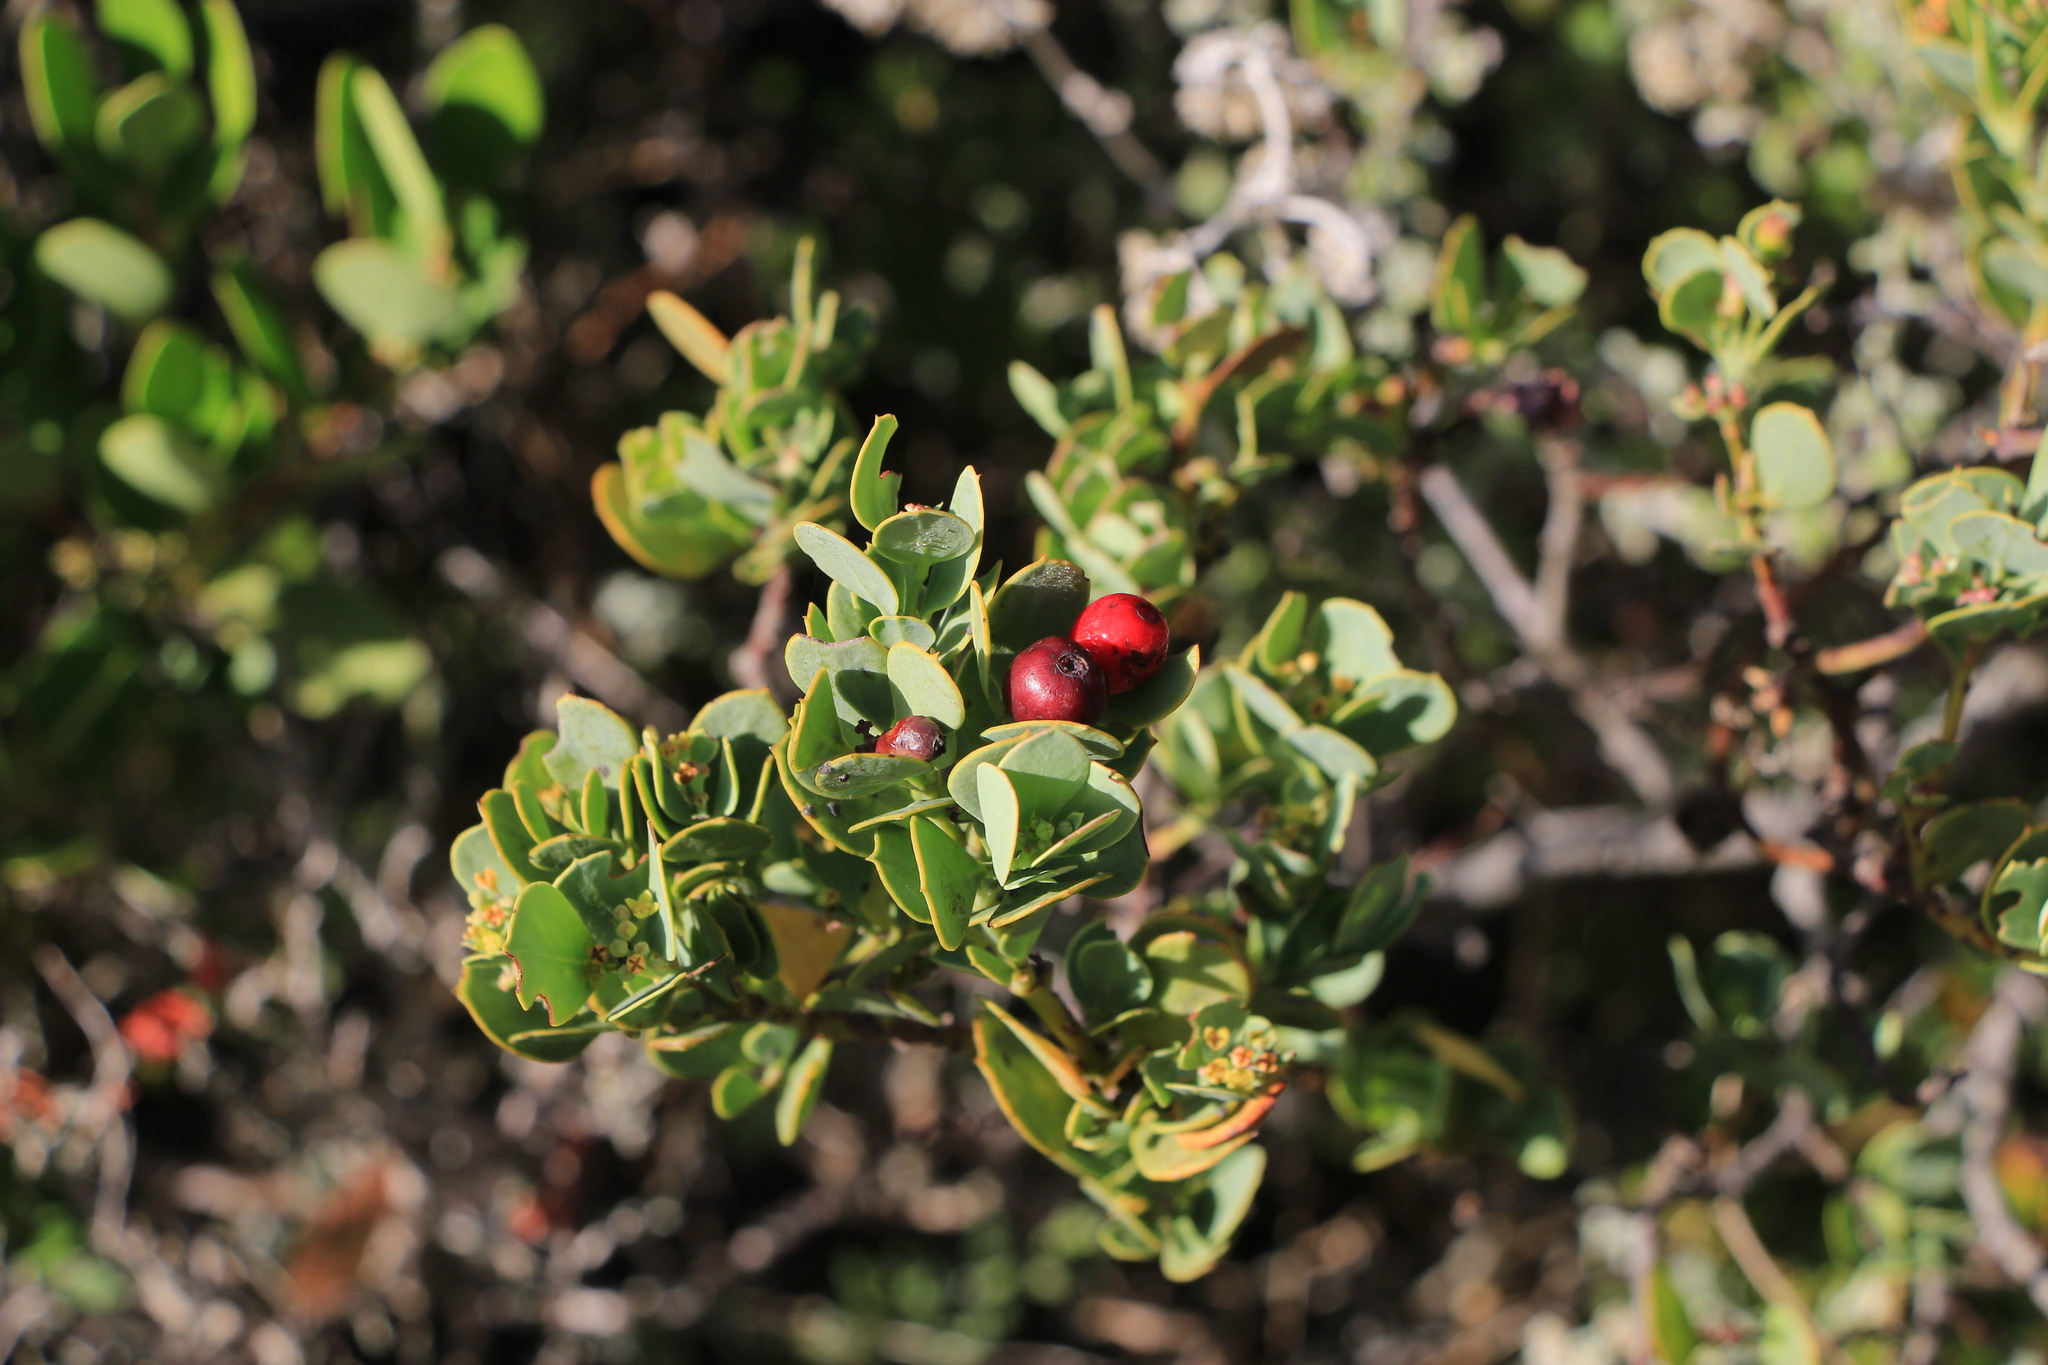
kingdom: Plantae
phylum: Tracheophyta
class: Magnoliopsida
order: Santalales
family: Santalaceae
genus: Osyris
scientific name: Osyris compressa
